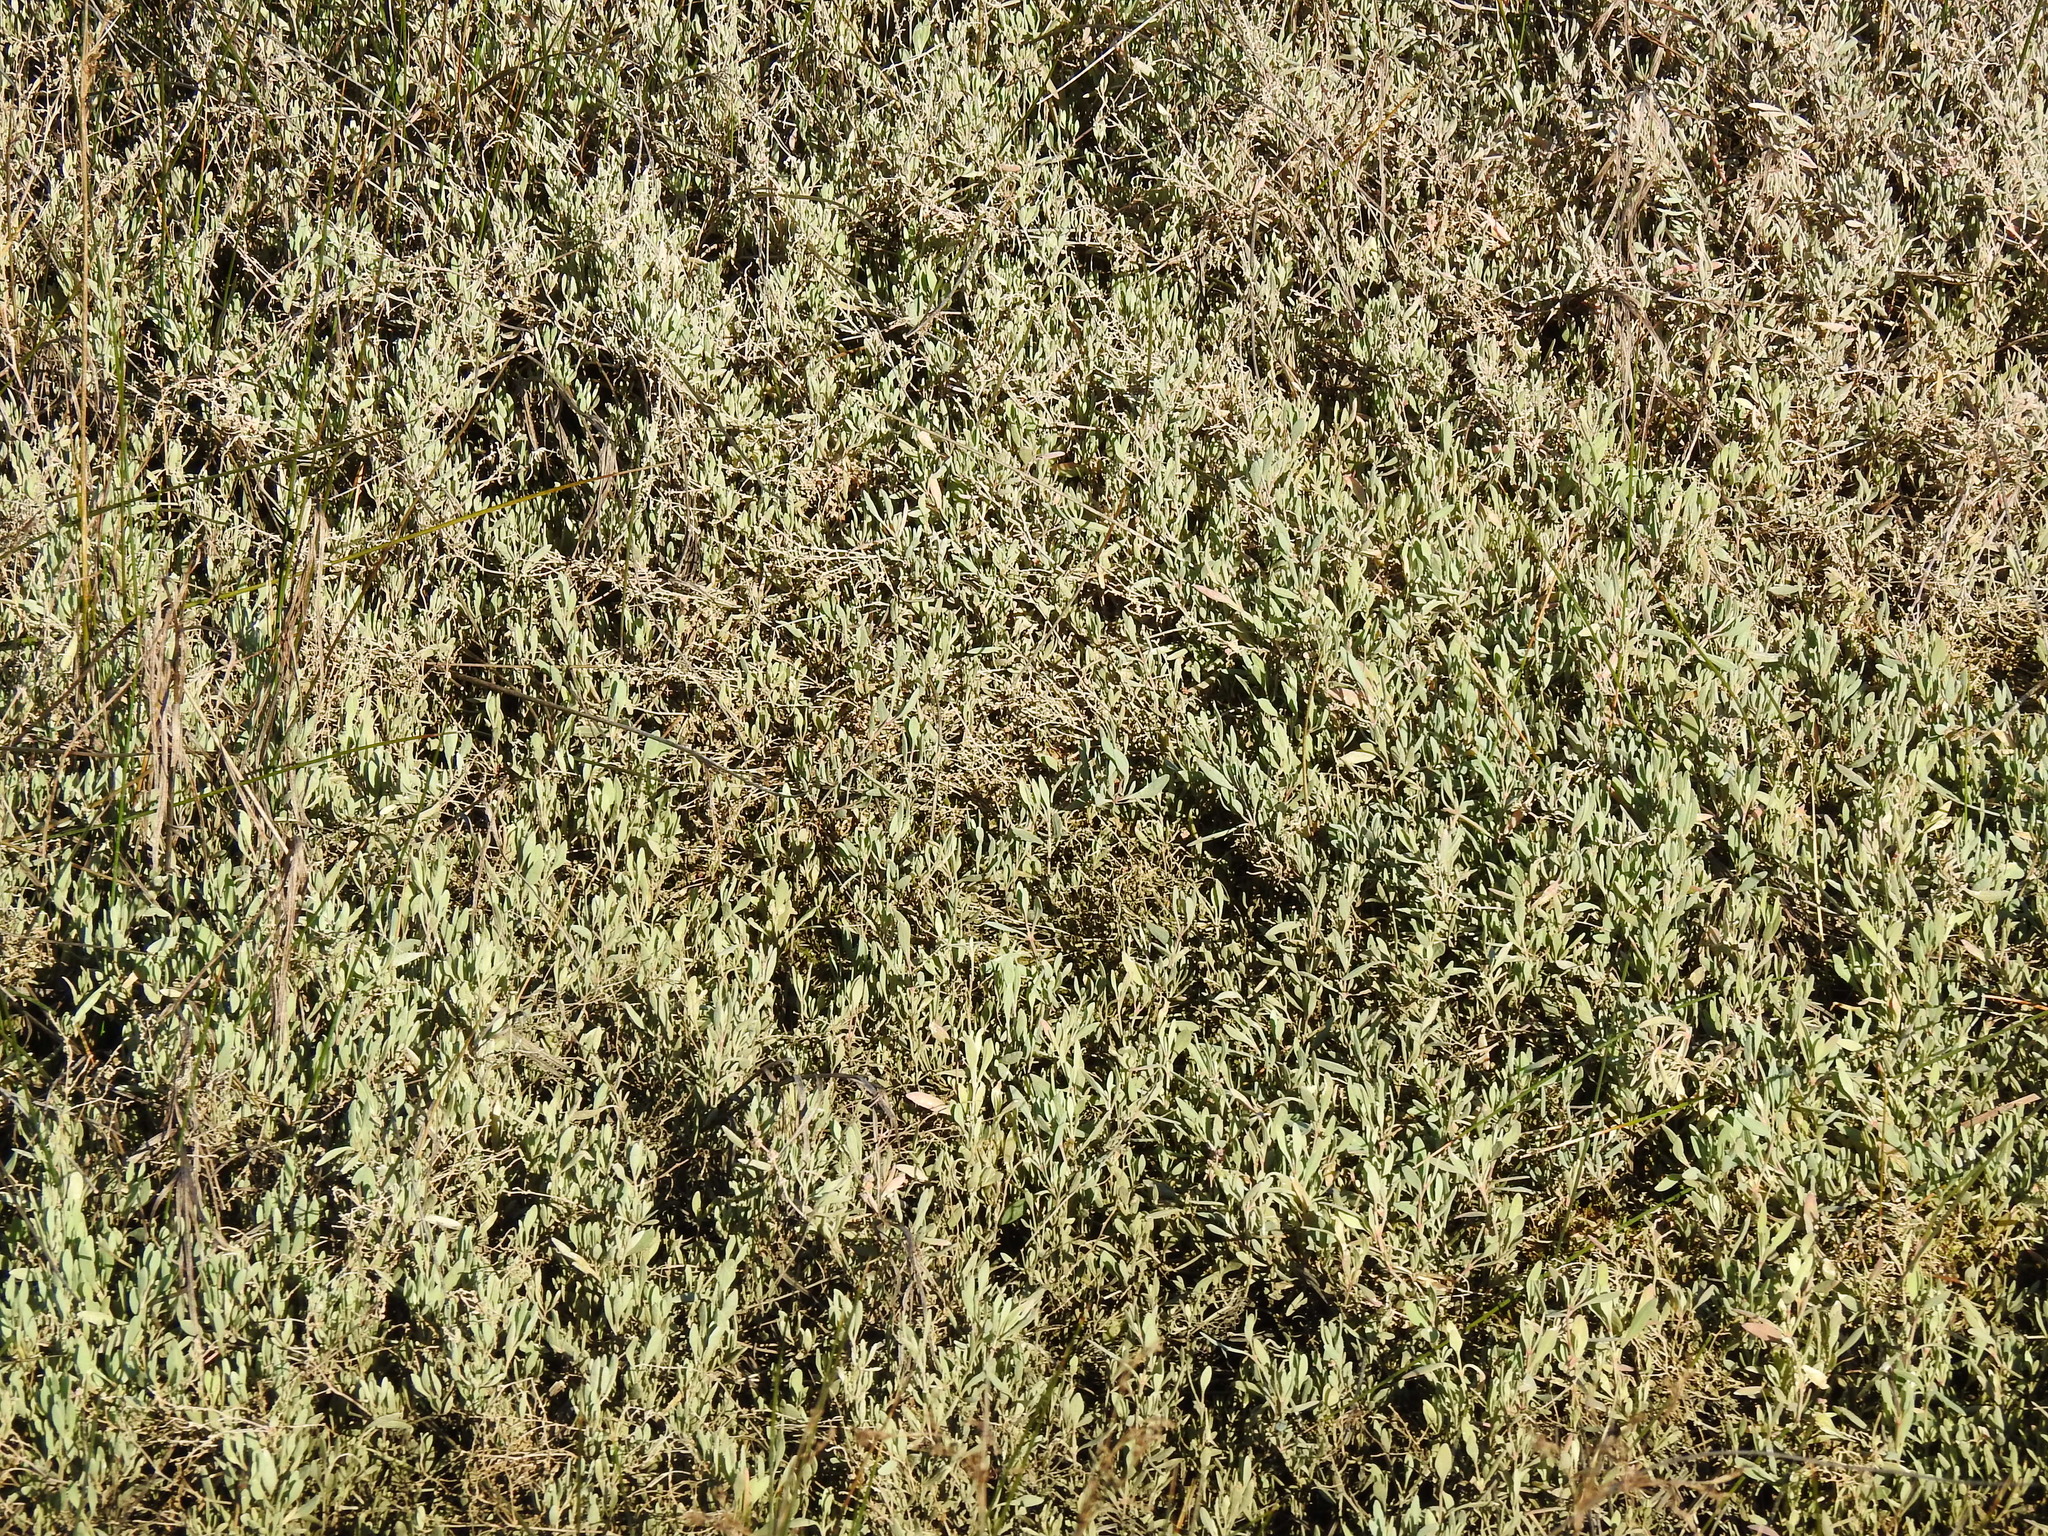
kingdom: Plantae
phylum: Tracheophyta
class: Magnoliopsida
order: Caryophyllales
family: Amaranthaceae
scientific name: Amaranthaceae
